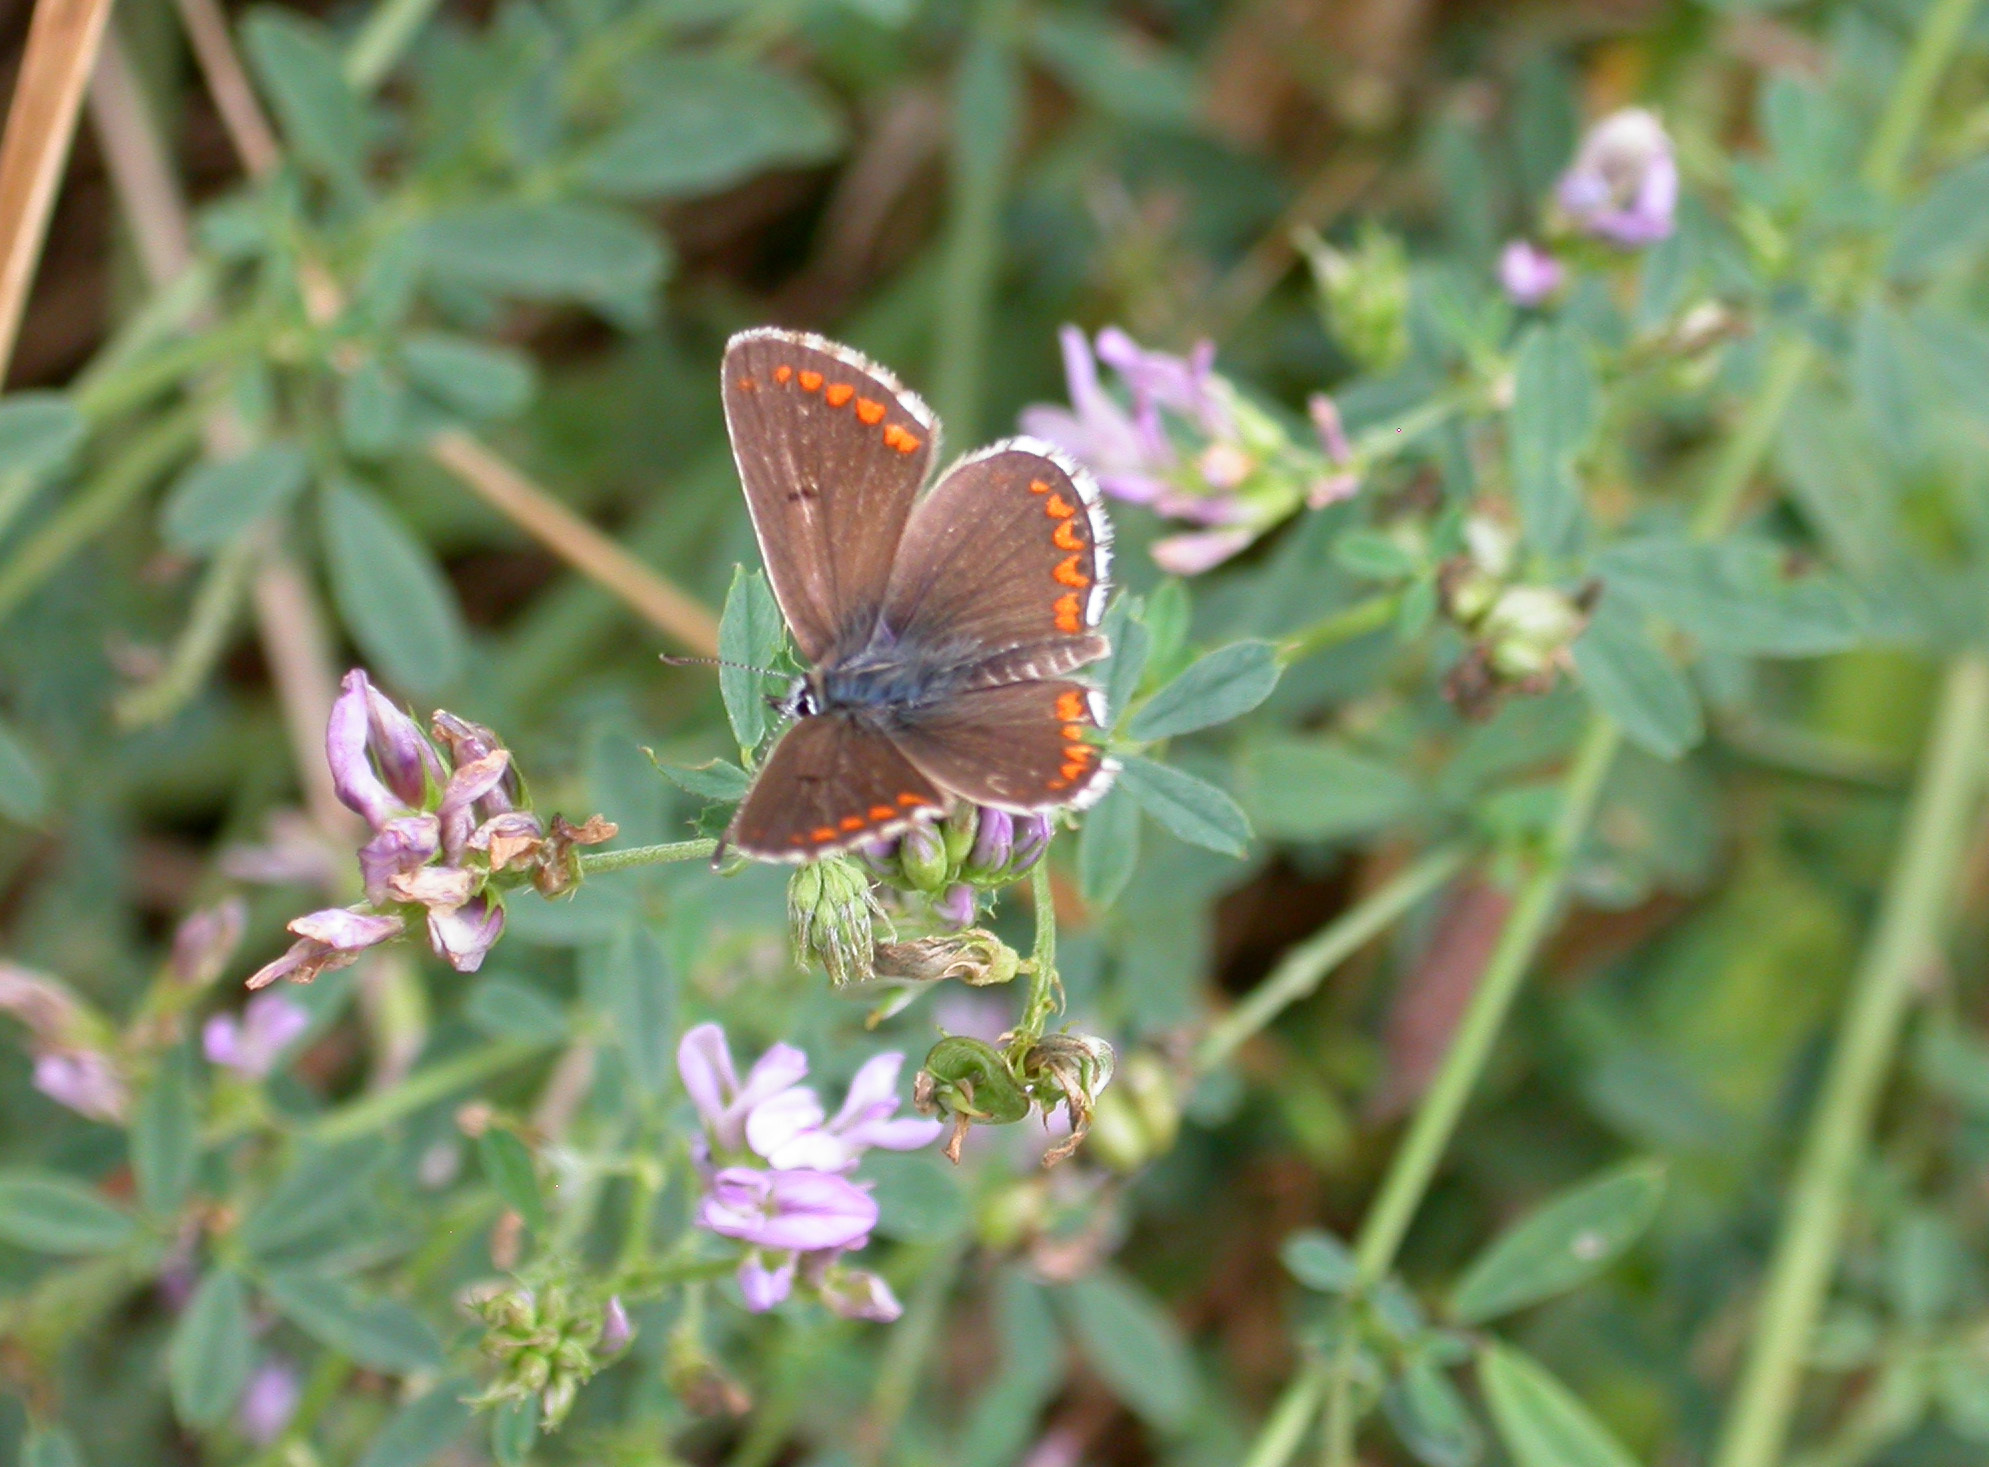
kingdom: Animalia
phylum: Arthropoda
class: Insecta
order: Lepidoptera
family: Lycaenidae
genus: Aricia
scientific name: Aricia agestis
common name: Brown argus
